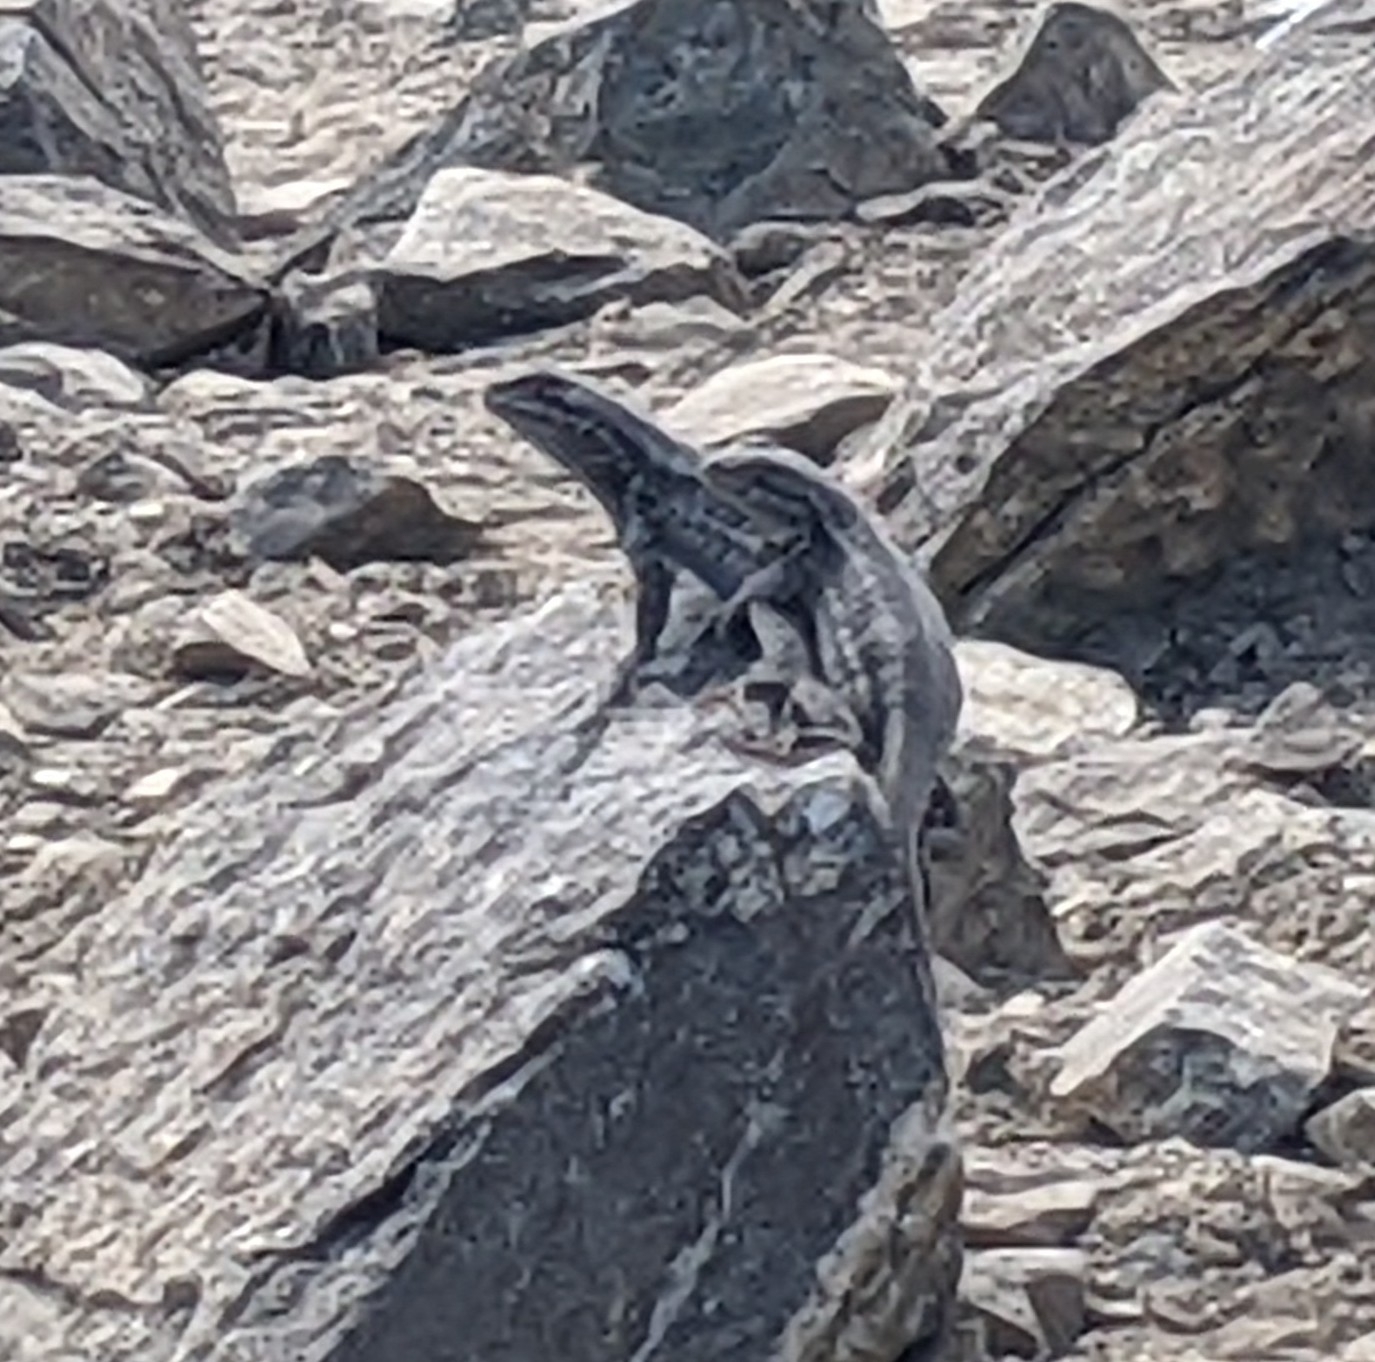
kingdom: Animalia
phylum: Chordata
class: Squamata
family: Phrynosomatidae
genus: Sceloporus
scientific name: Sceloporus graciosus
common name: Sagebrush lizard
